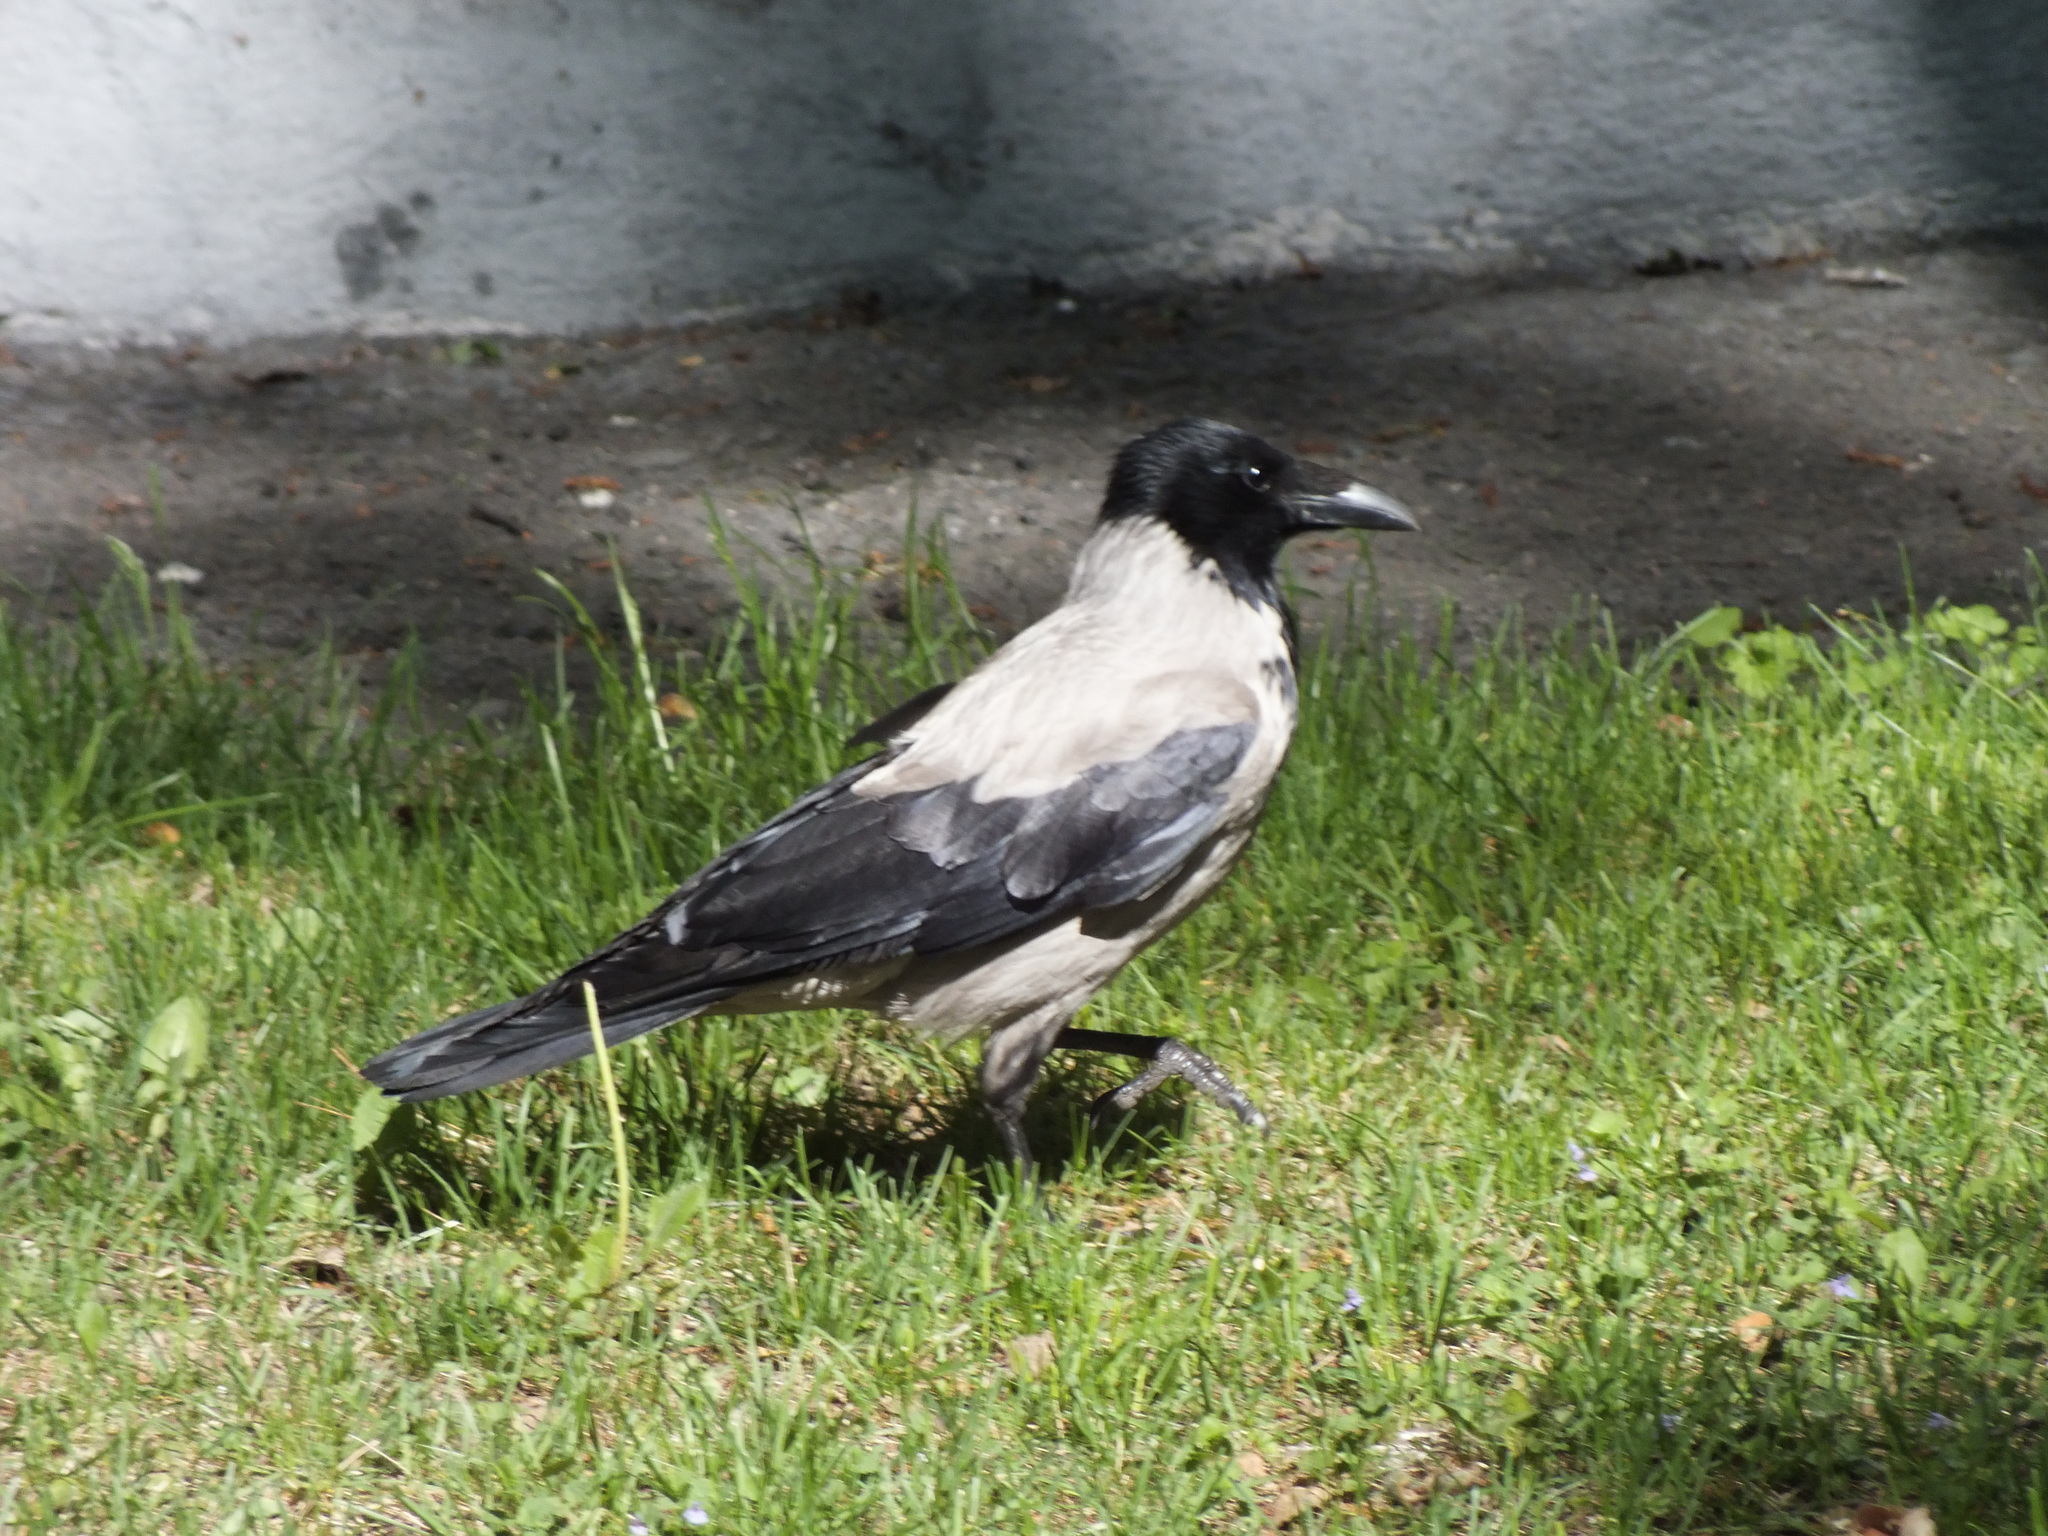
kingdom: Animalia
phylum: Chordata
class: Aves
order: Passeriformes
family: Corvidae
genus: Corvus
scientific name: Corvus cornix
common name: Hooded crow
